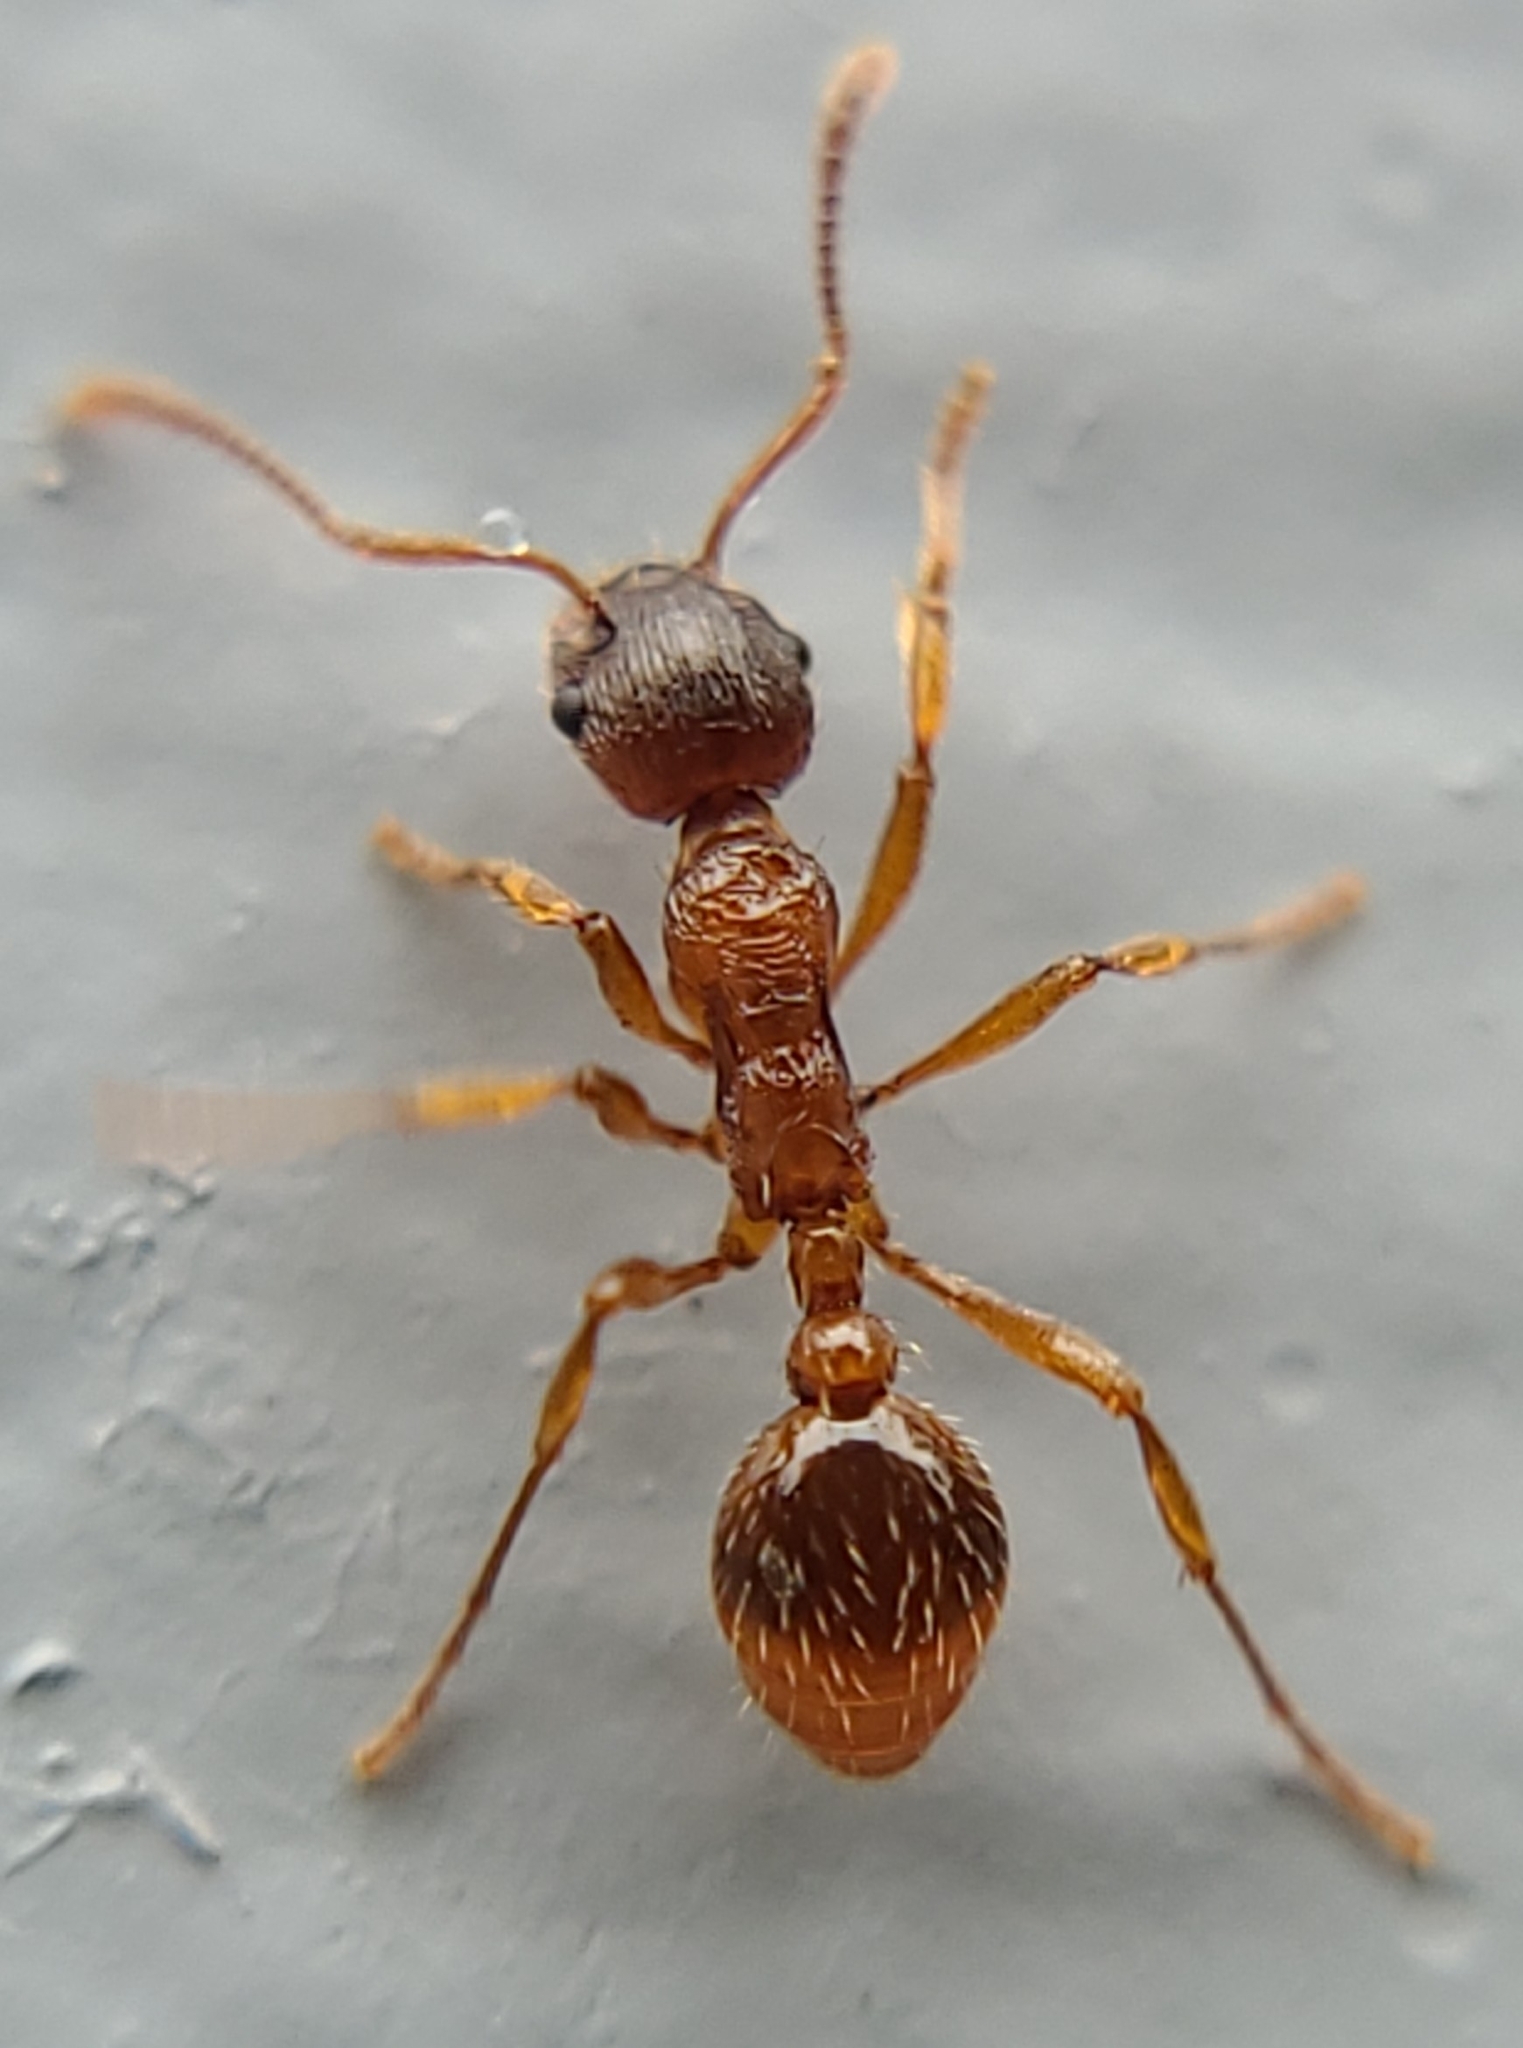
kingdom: Animalia
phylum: Arthropoda
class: Insecta
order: Hymenoptera
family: Formicidae
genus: Myrmica
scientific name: Myrmica rubra
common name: European fire ant
